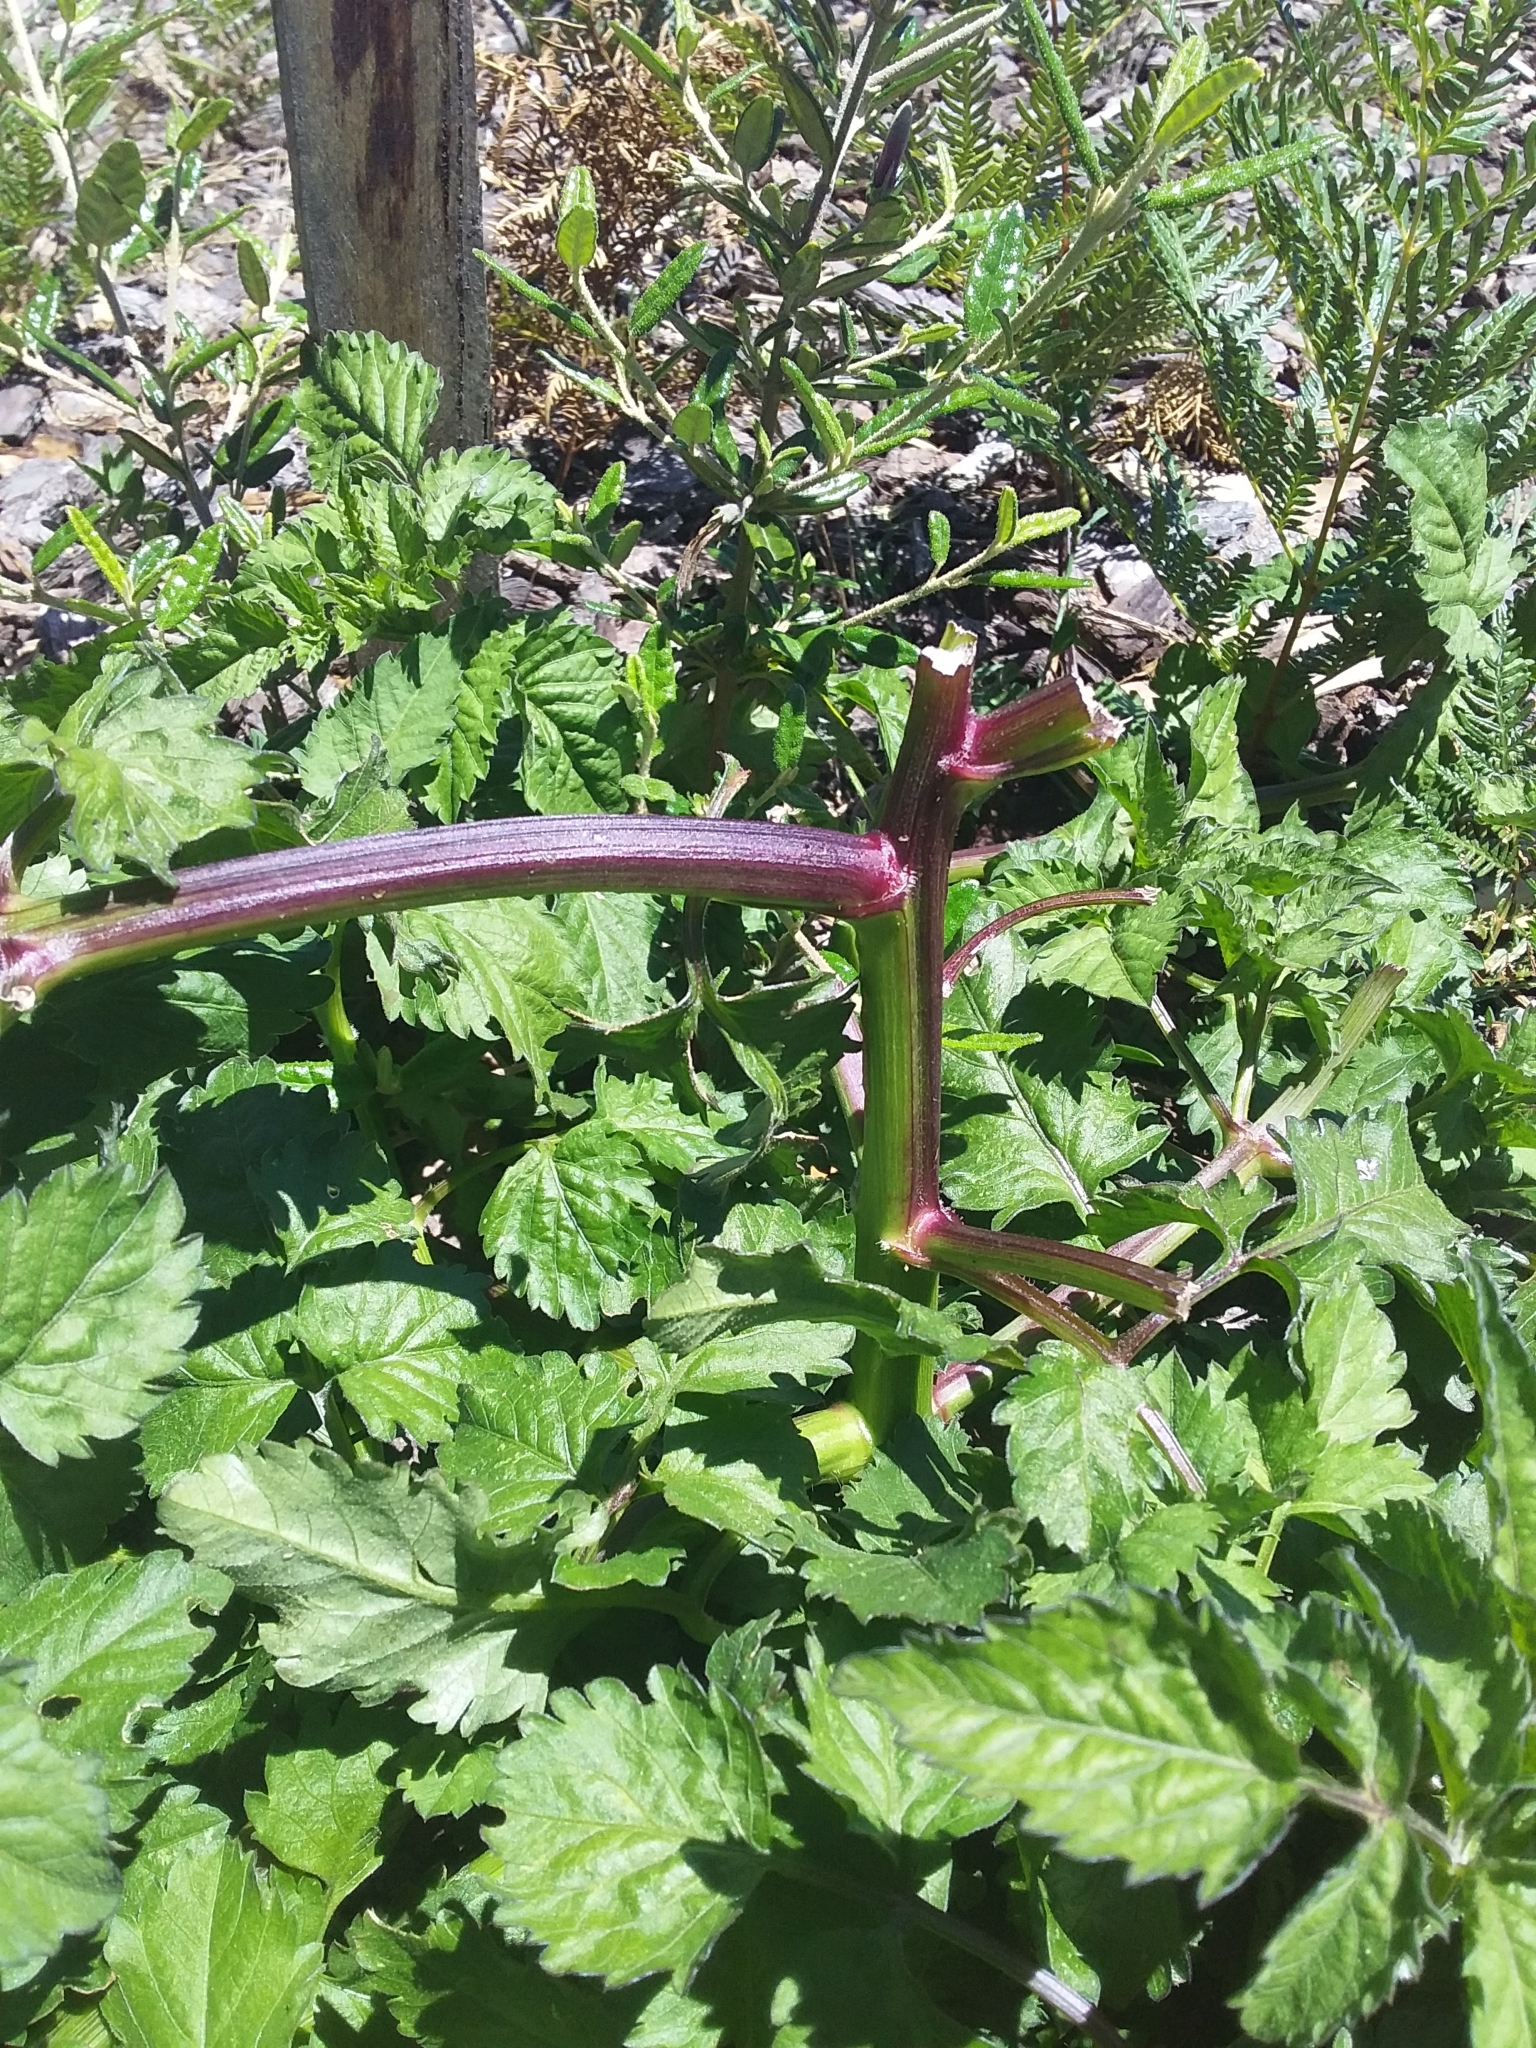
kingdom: Plantae
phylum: Tracheophyta
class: Magnoliopsida
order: Asterales
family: Asteraceae
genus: Bidens
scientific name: Bidens pilosa
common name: Black-jack
